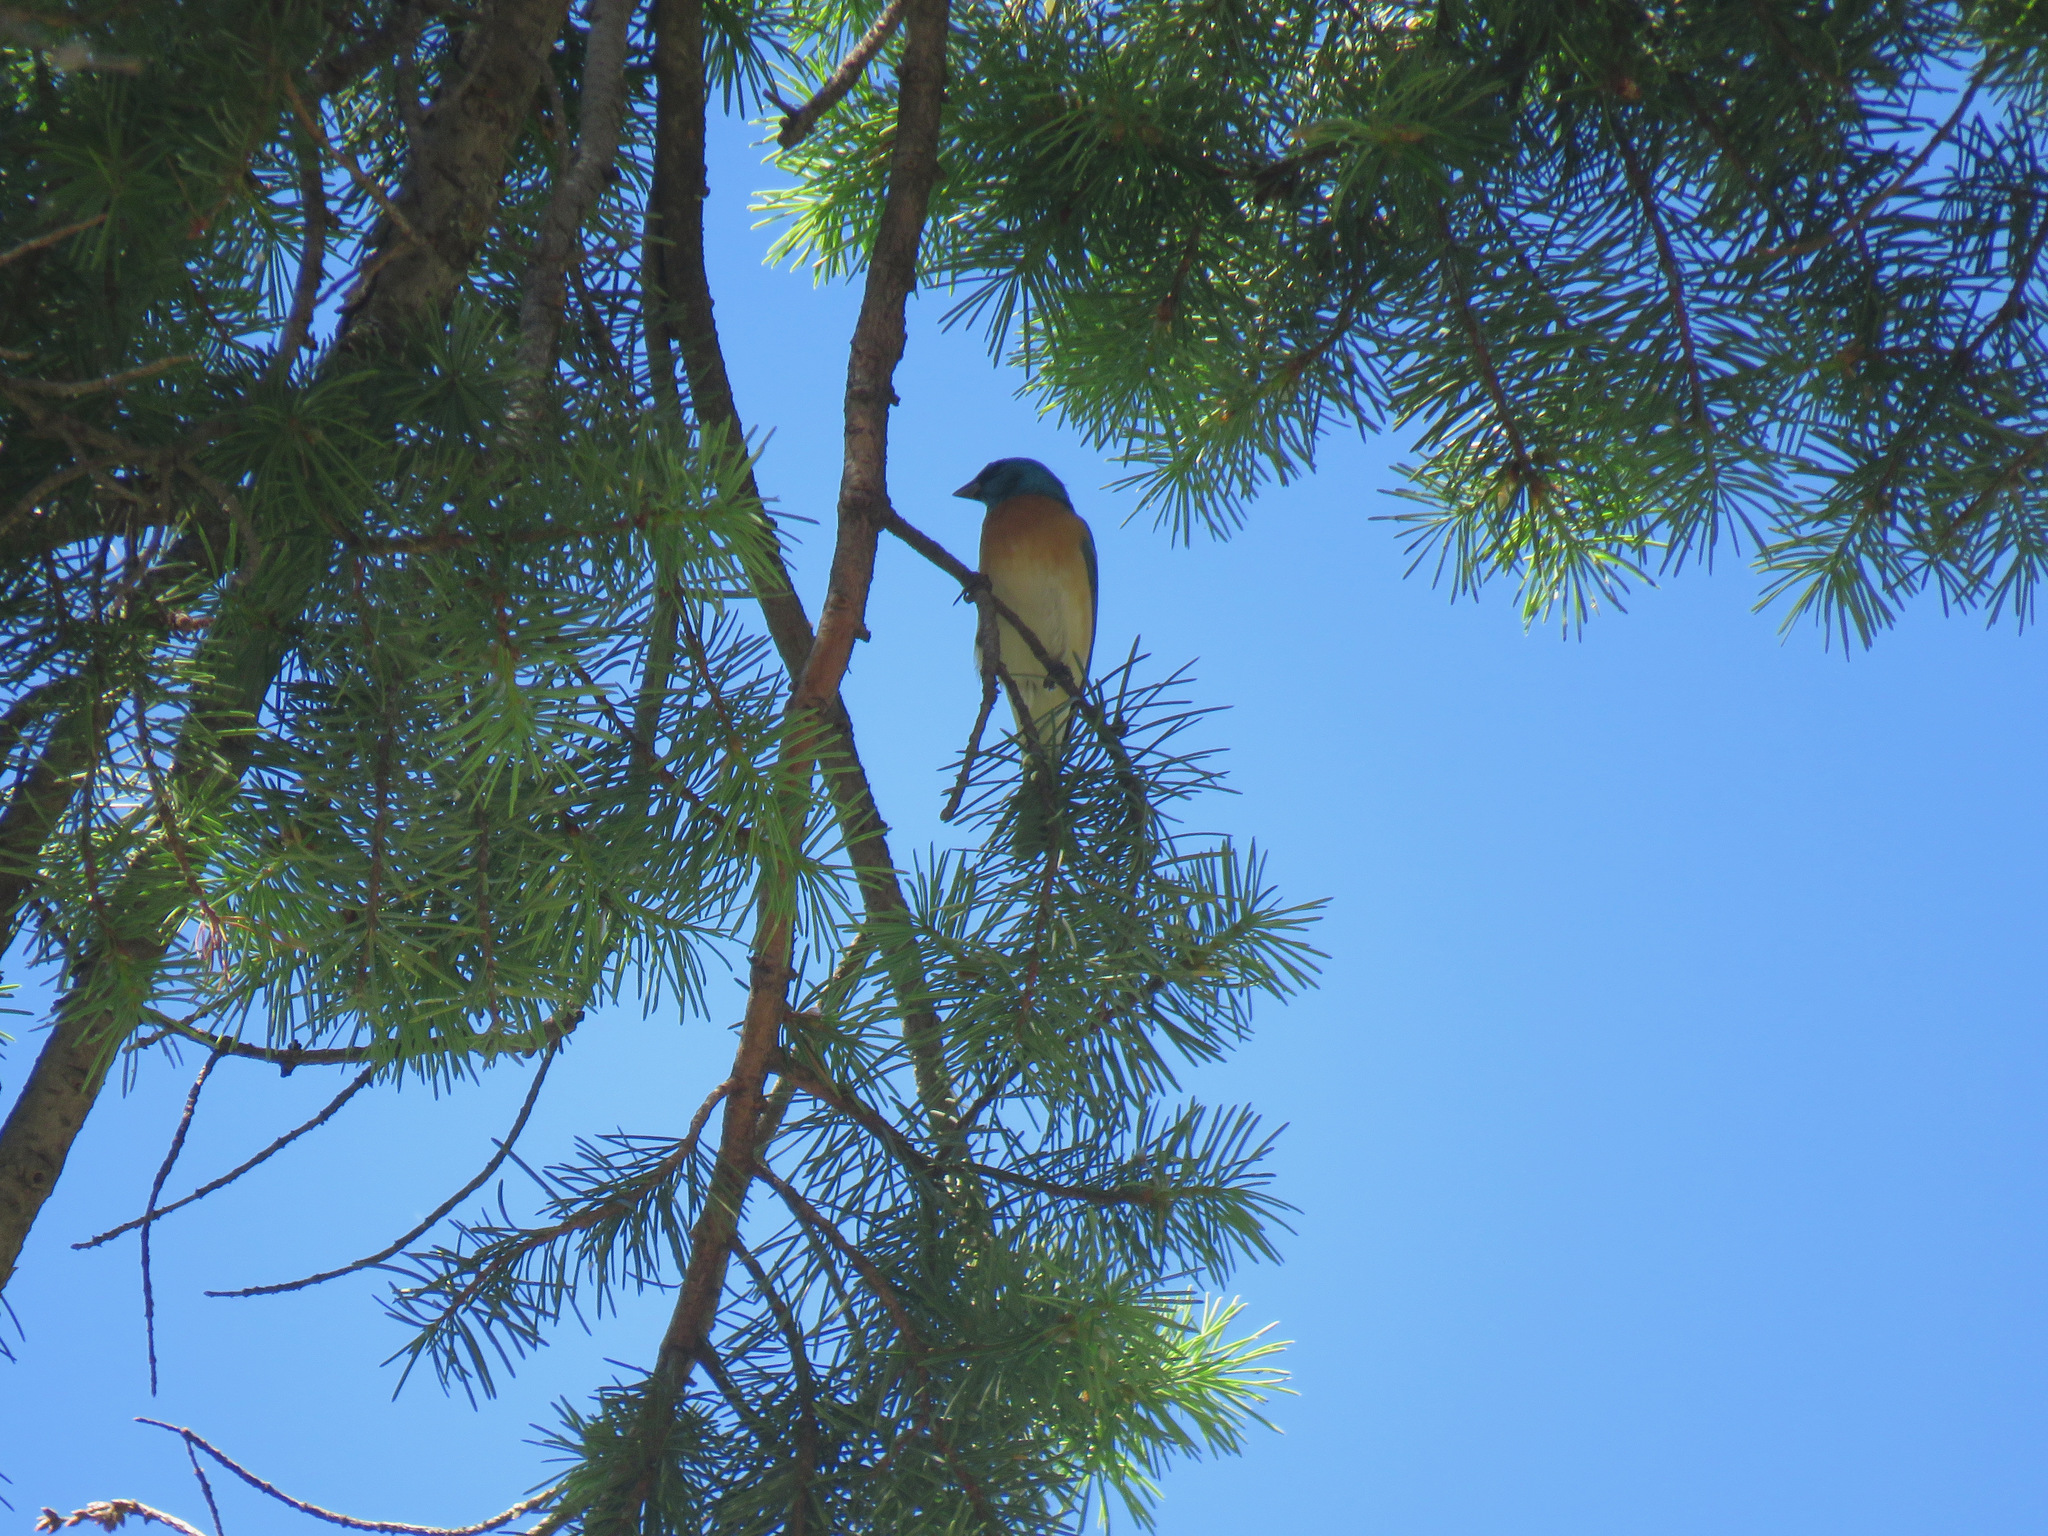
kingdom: Animalia
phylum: Chordata
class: Aves
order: Passeriformes
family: Cardinalidae
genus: Passerina
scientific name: Passerina amoena
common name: Lazuli bunting
